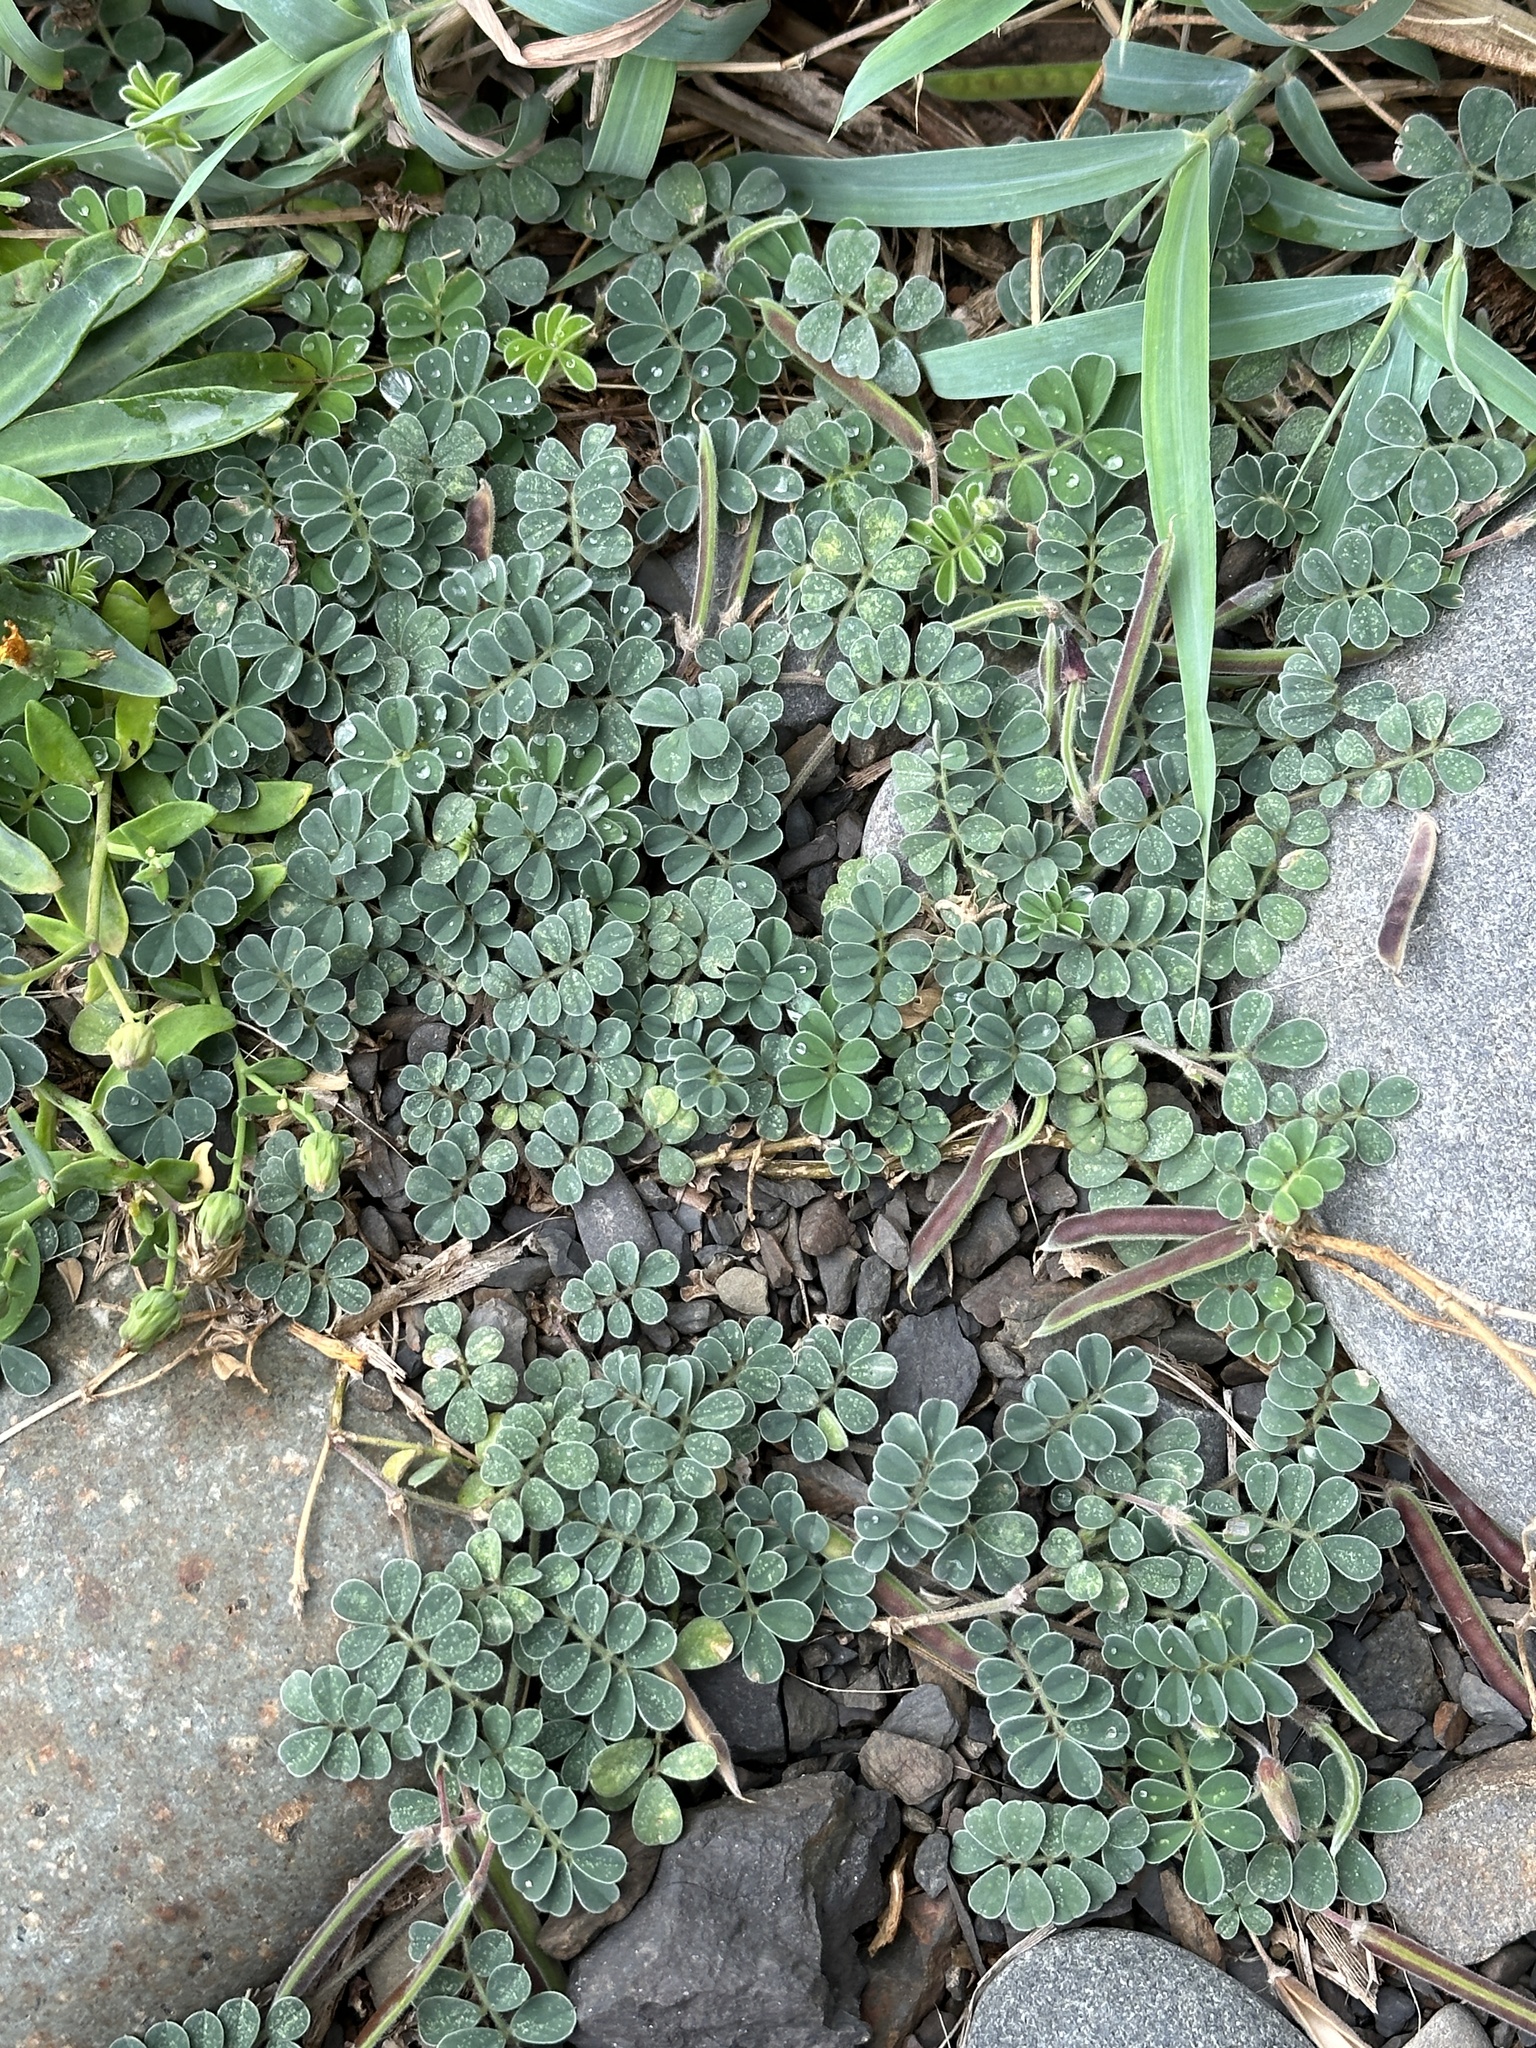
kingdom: Plantae
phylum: Tracheophyta
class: Magnoliopsida
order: Fabales
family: Fabaceae
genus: Tephrosia
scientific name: Tephrosia obovata
